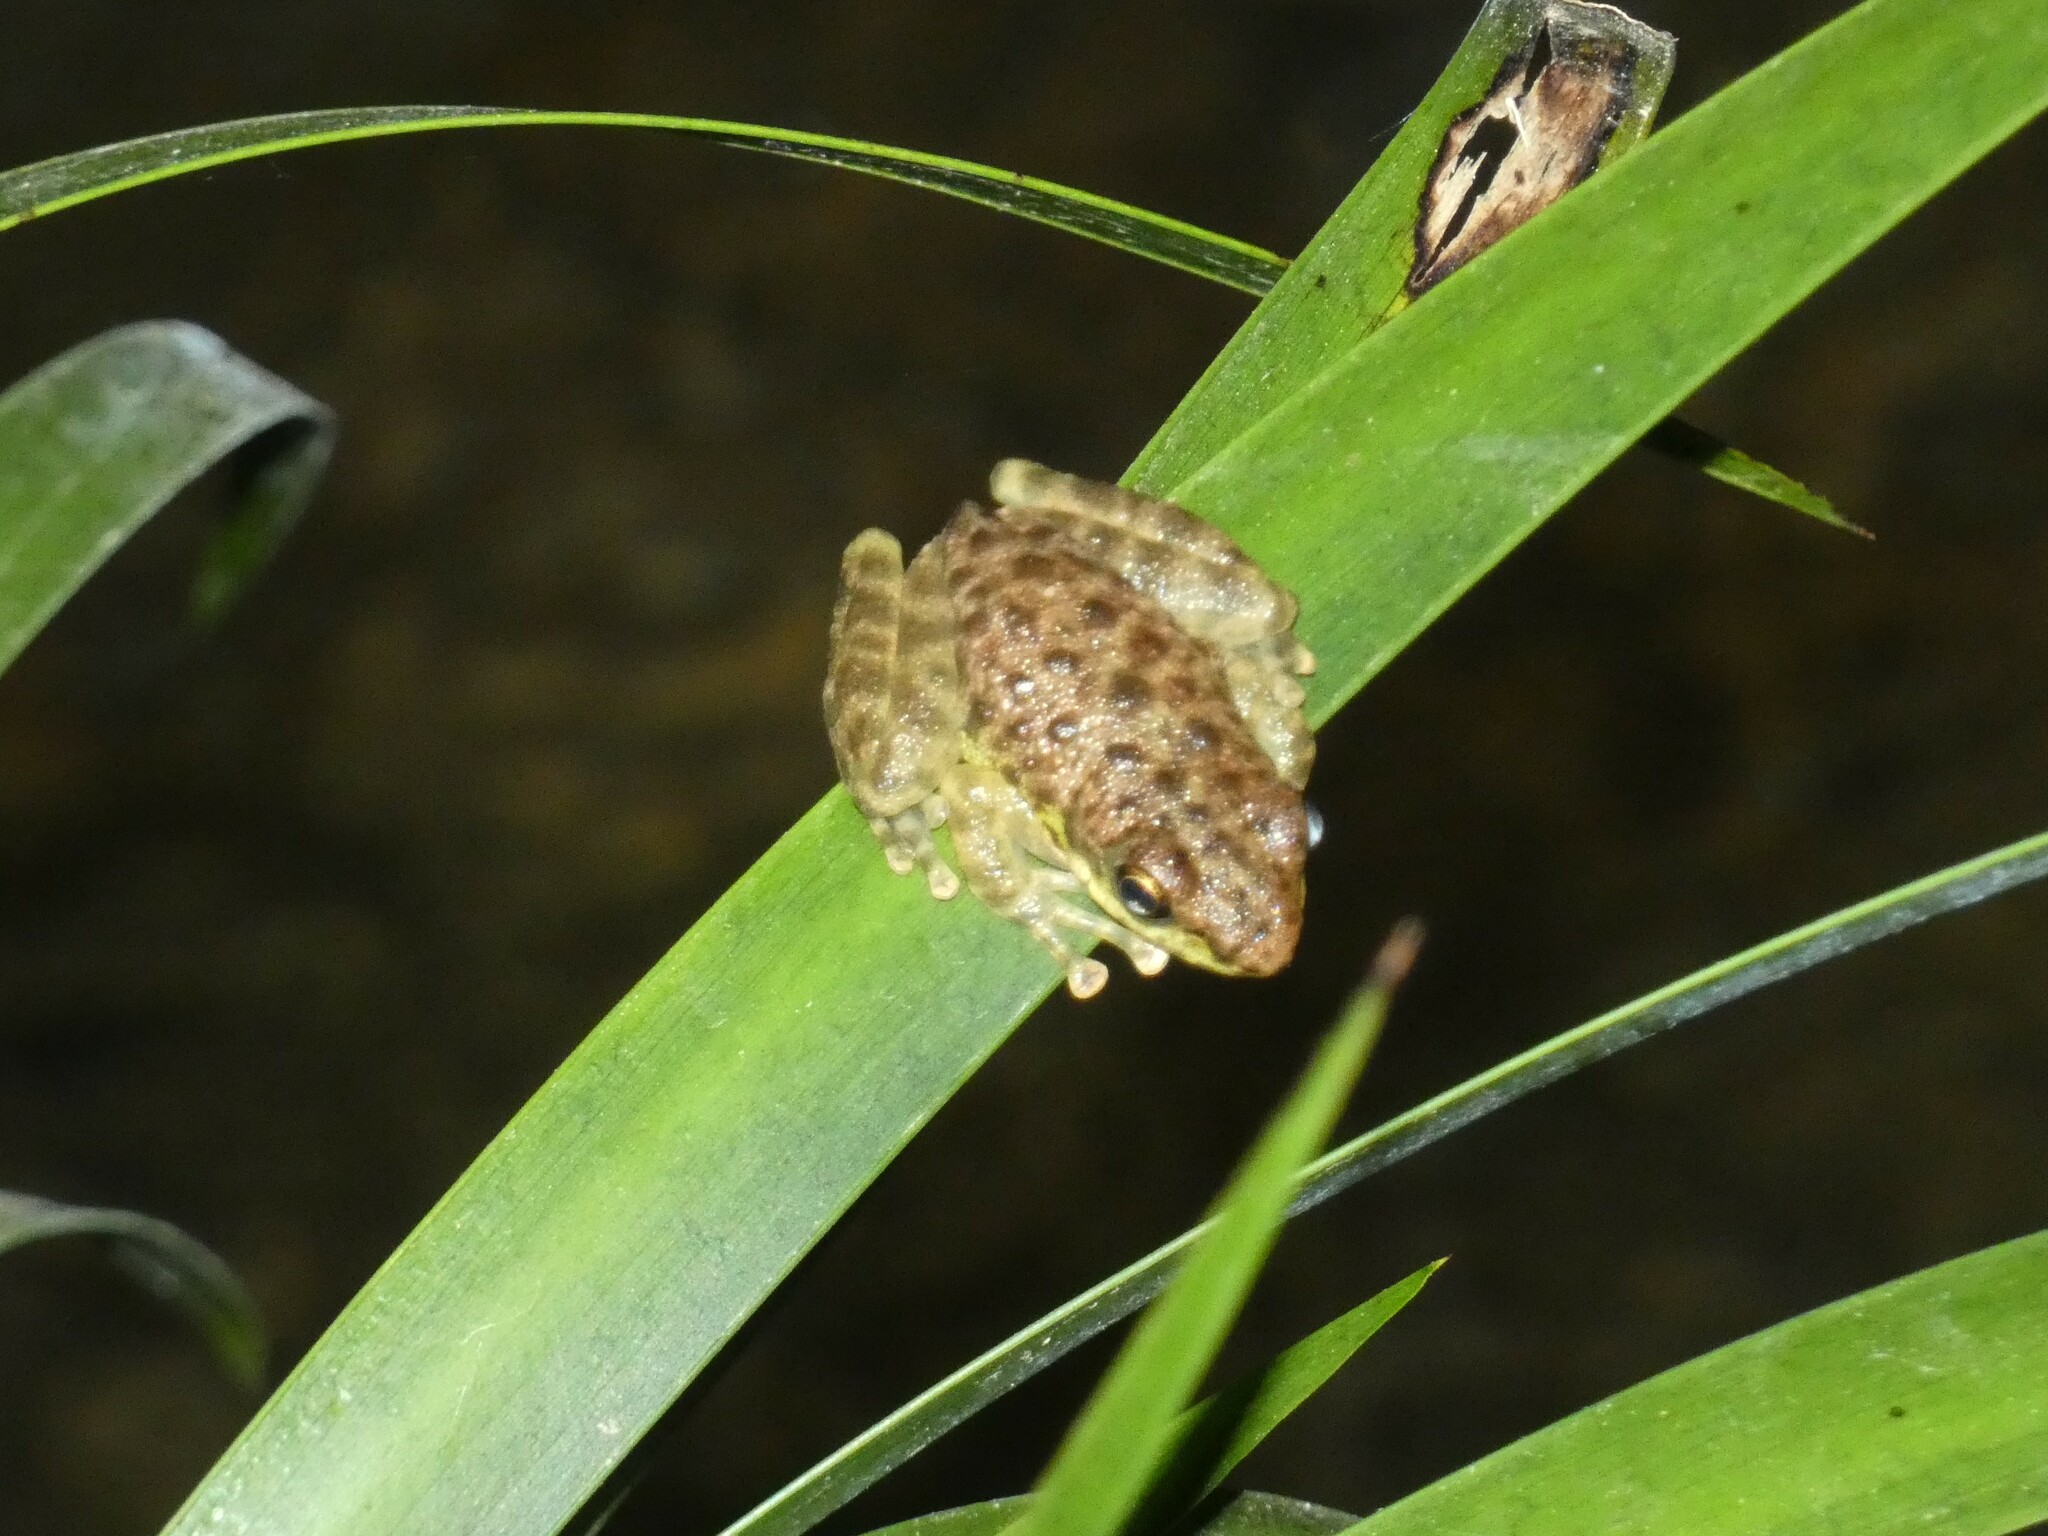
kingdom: Animalia
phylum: Chordata
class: Amphibia
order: Anura
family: Ranidae
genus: Amolops
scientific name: Amolops marmoratus
